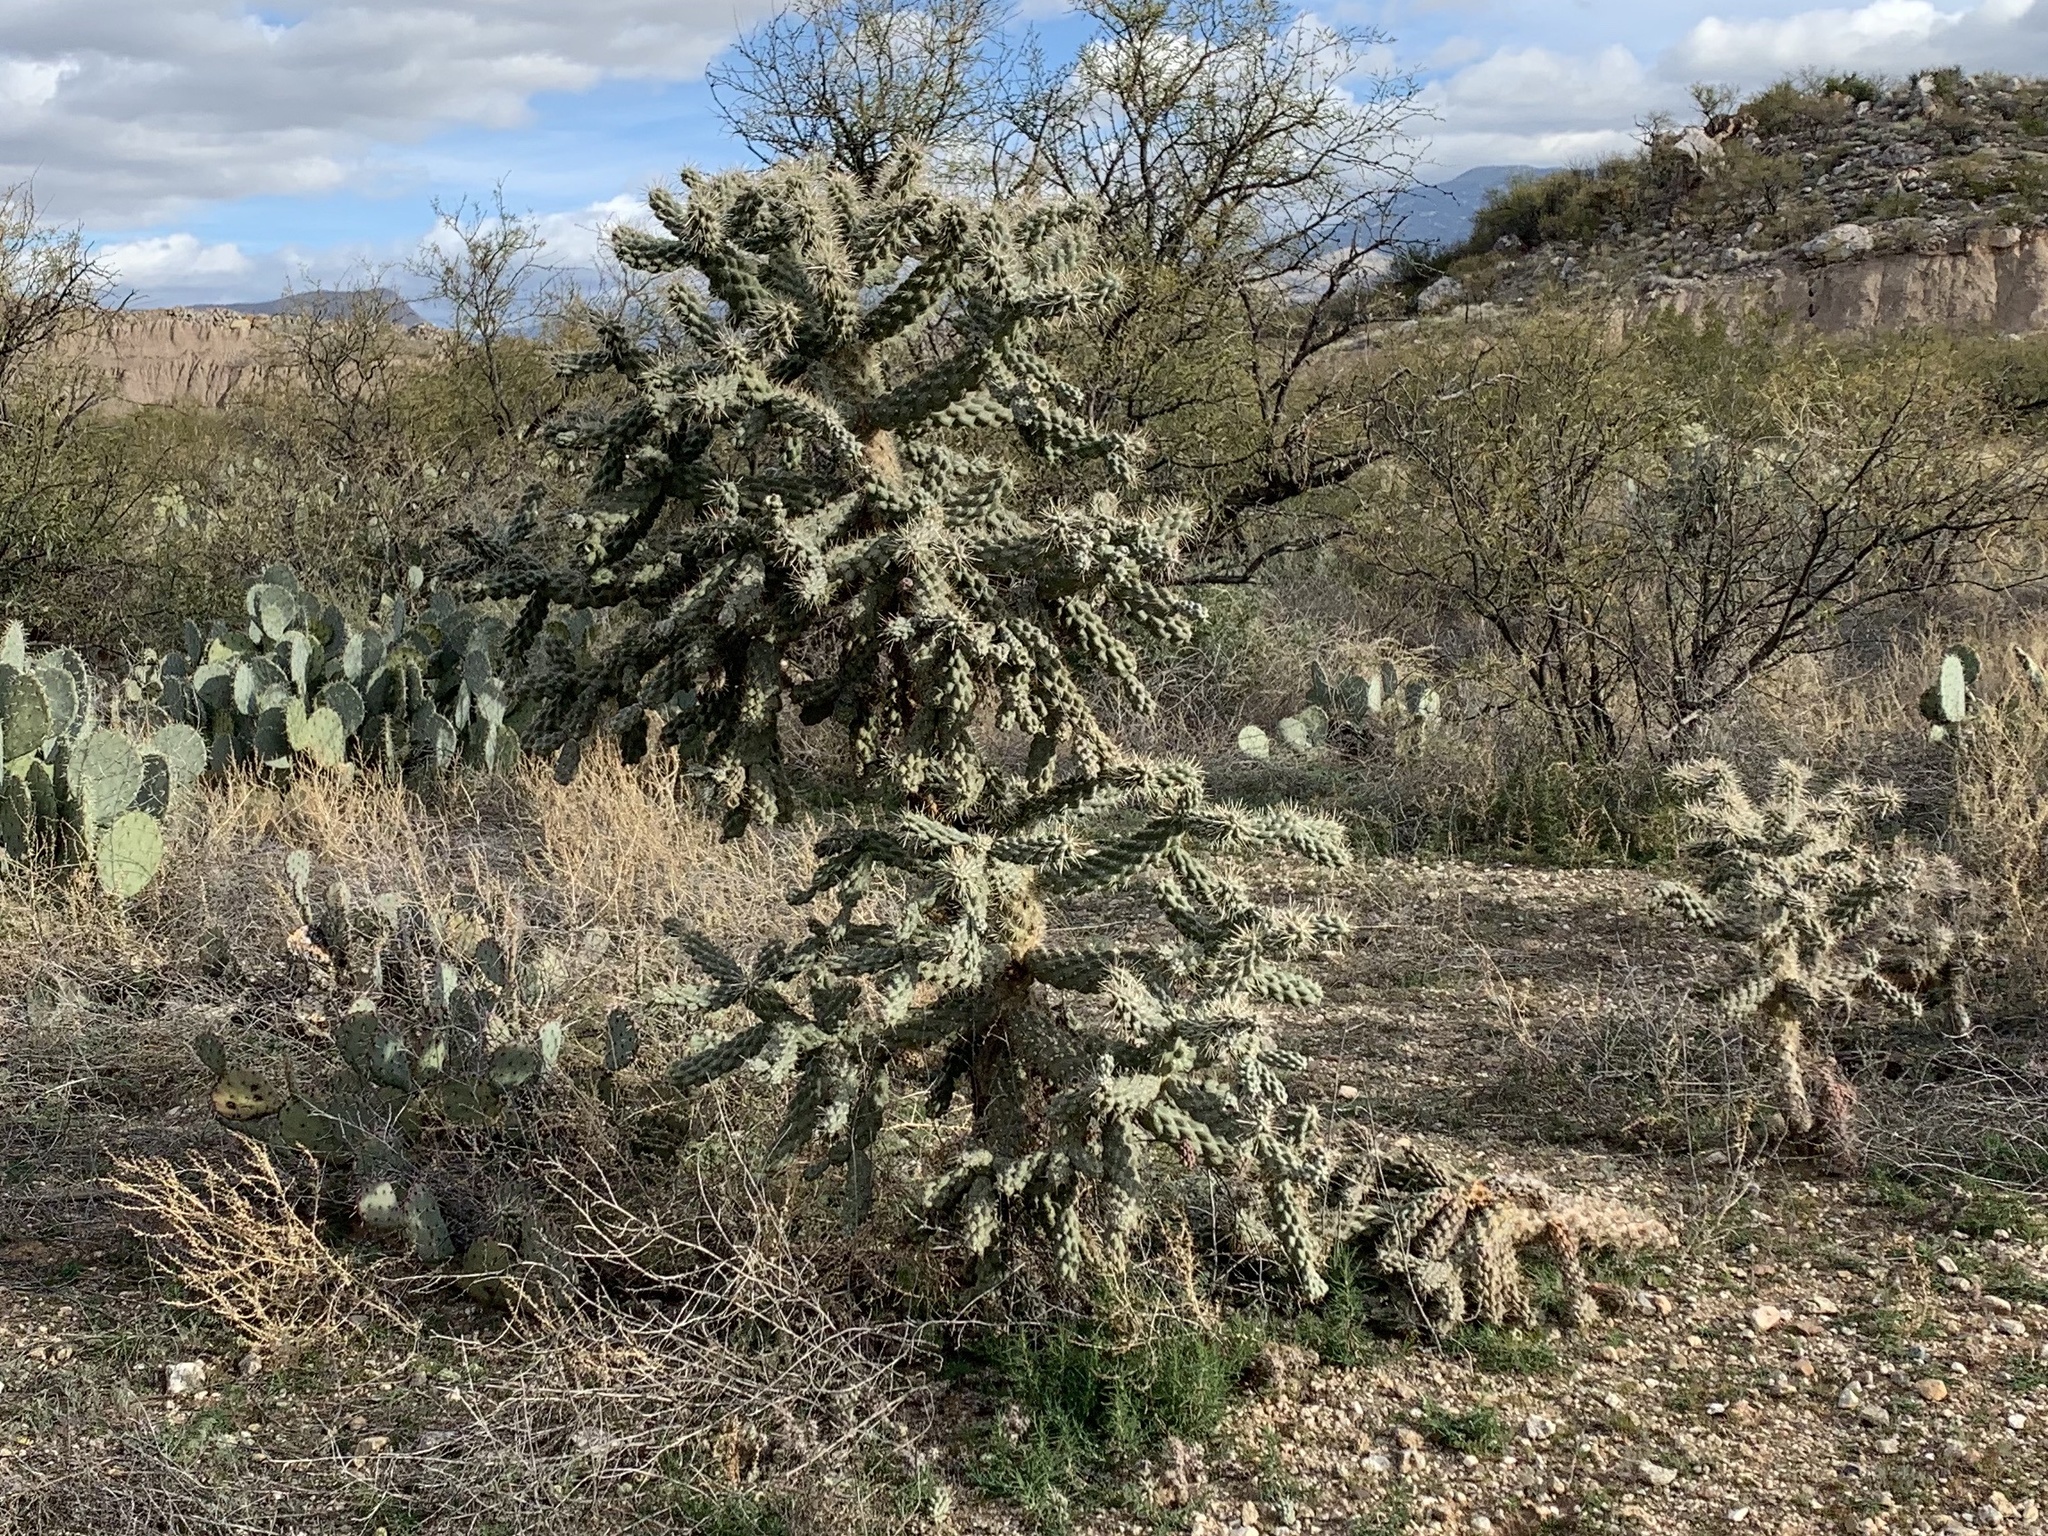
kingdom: Plantae
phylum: Tracheophyta
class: Magnoliopsida
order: Caryophyllales
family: Cactaceae
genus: Cylindropuntia
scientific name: Cylindropuntia fulgida
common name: Jumping cholla
